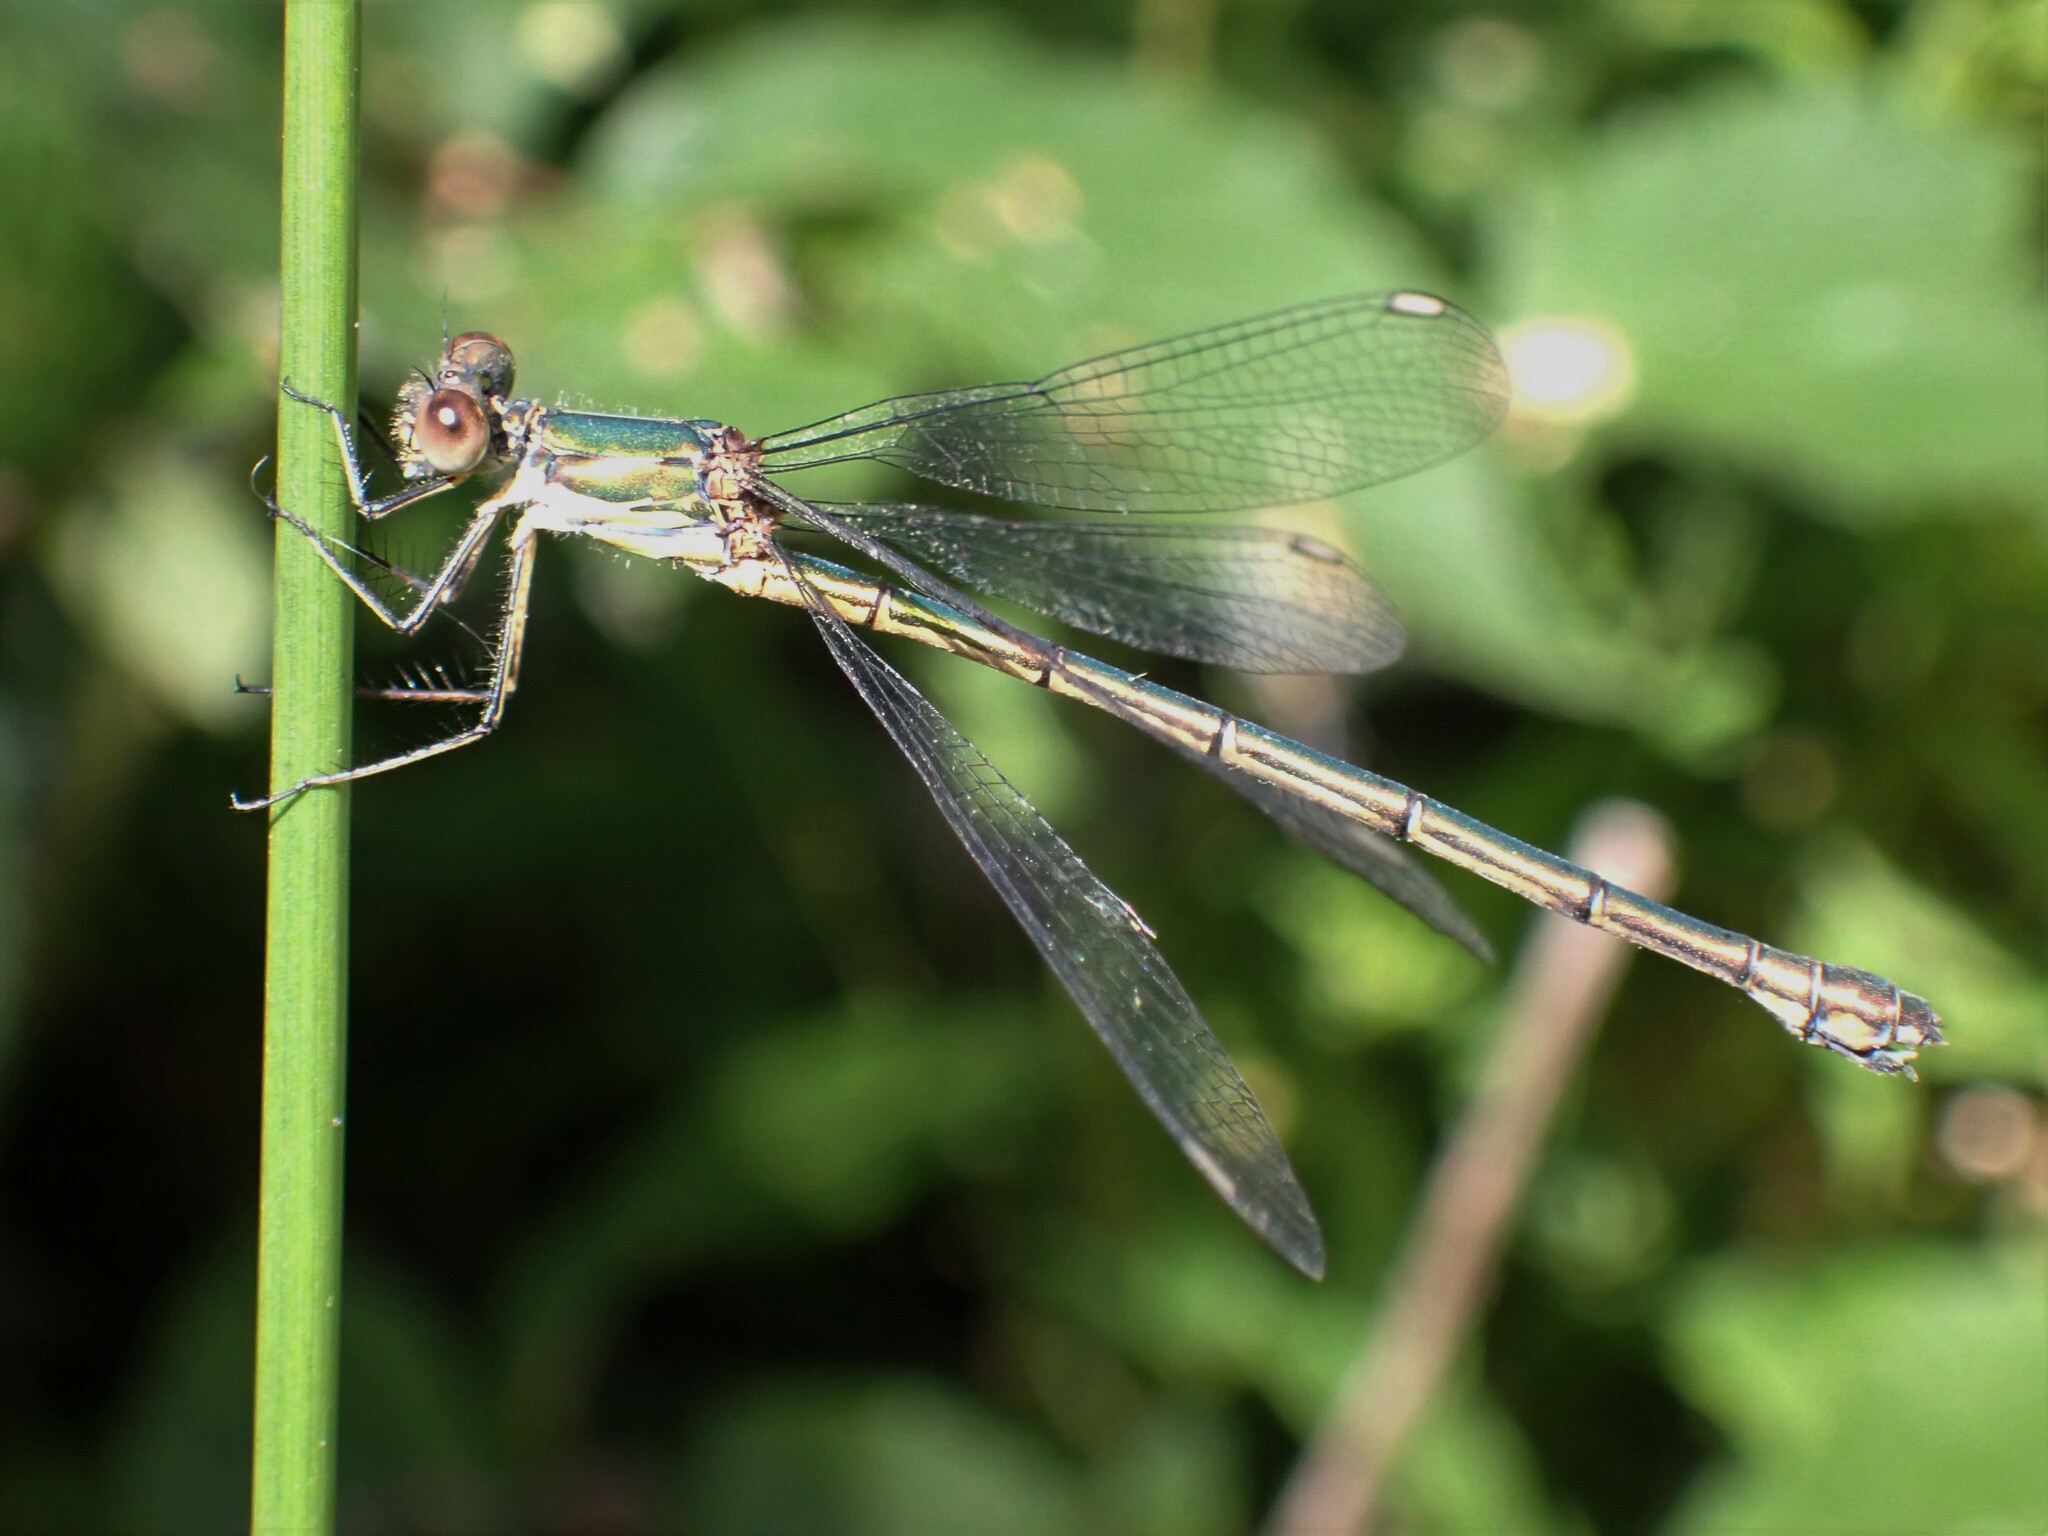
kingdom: Animalia
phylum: Arthropoda
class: Insecta
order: Odonata
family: Lestidae
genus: Chalcolestes
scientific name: Chalcolestes viridis
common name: Green emerald damselfly
